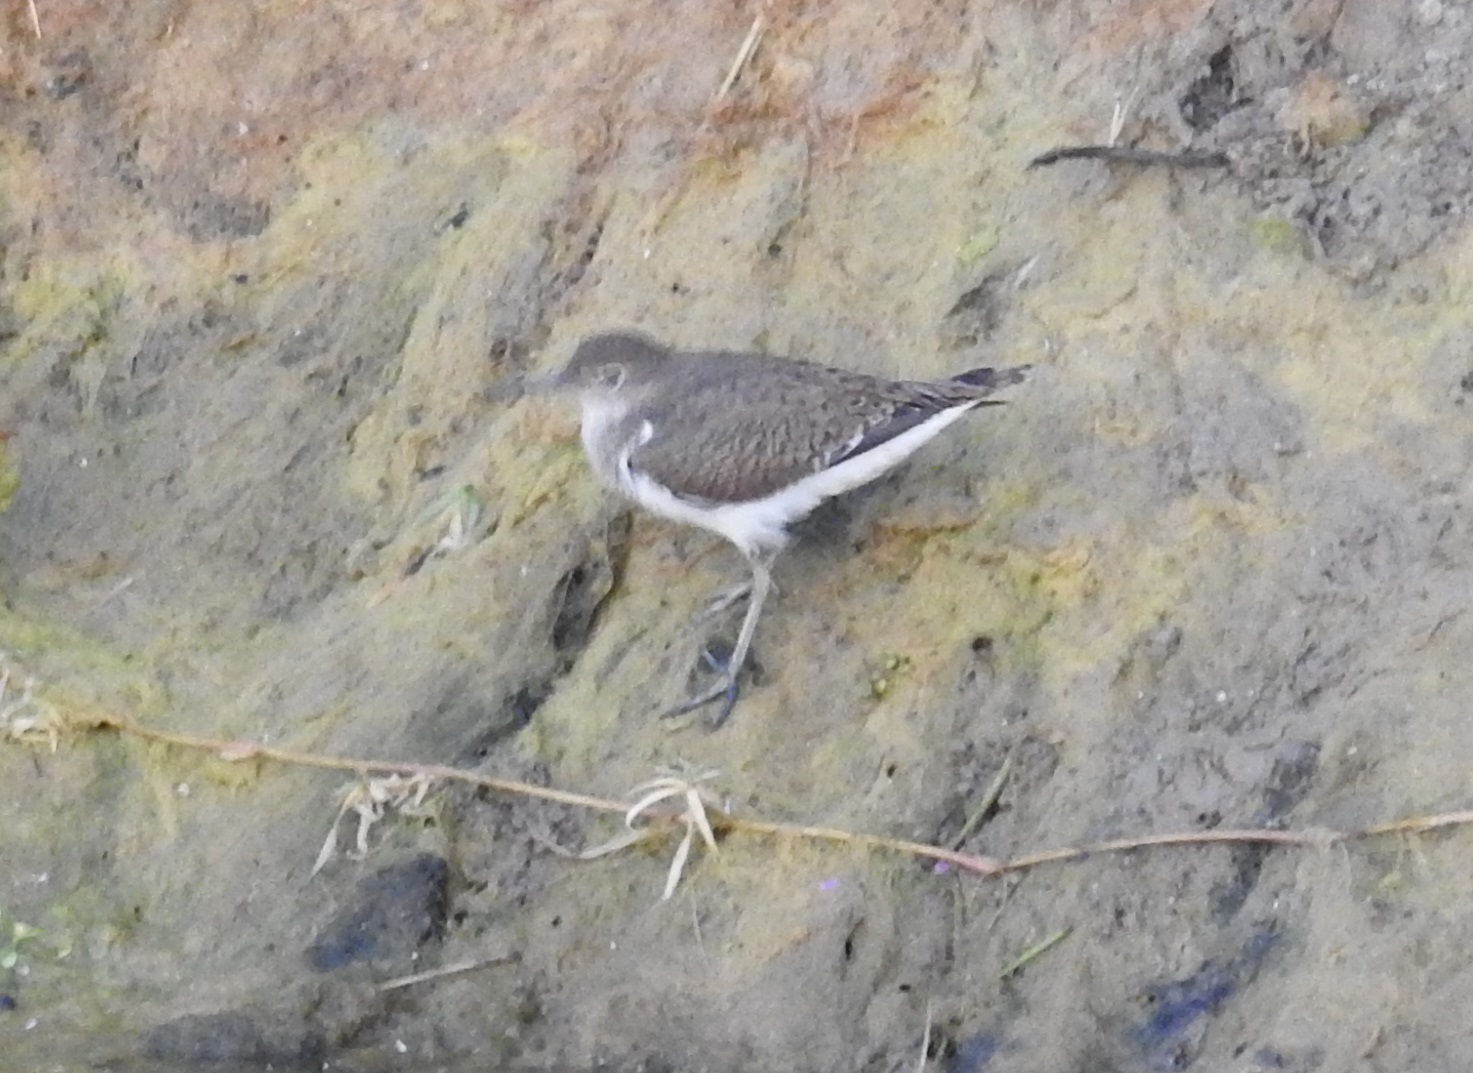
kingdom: Animalia
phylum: Chordata
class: Aves
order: Charadriiformes
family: Scolopacidae
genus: Actitis
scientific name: Actitis hypoleucos
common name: Common sandpiper
